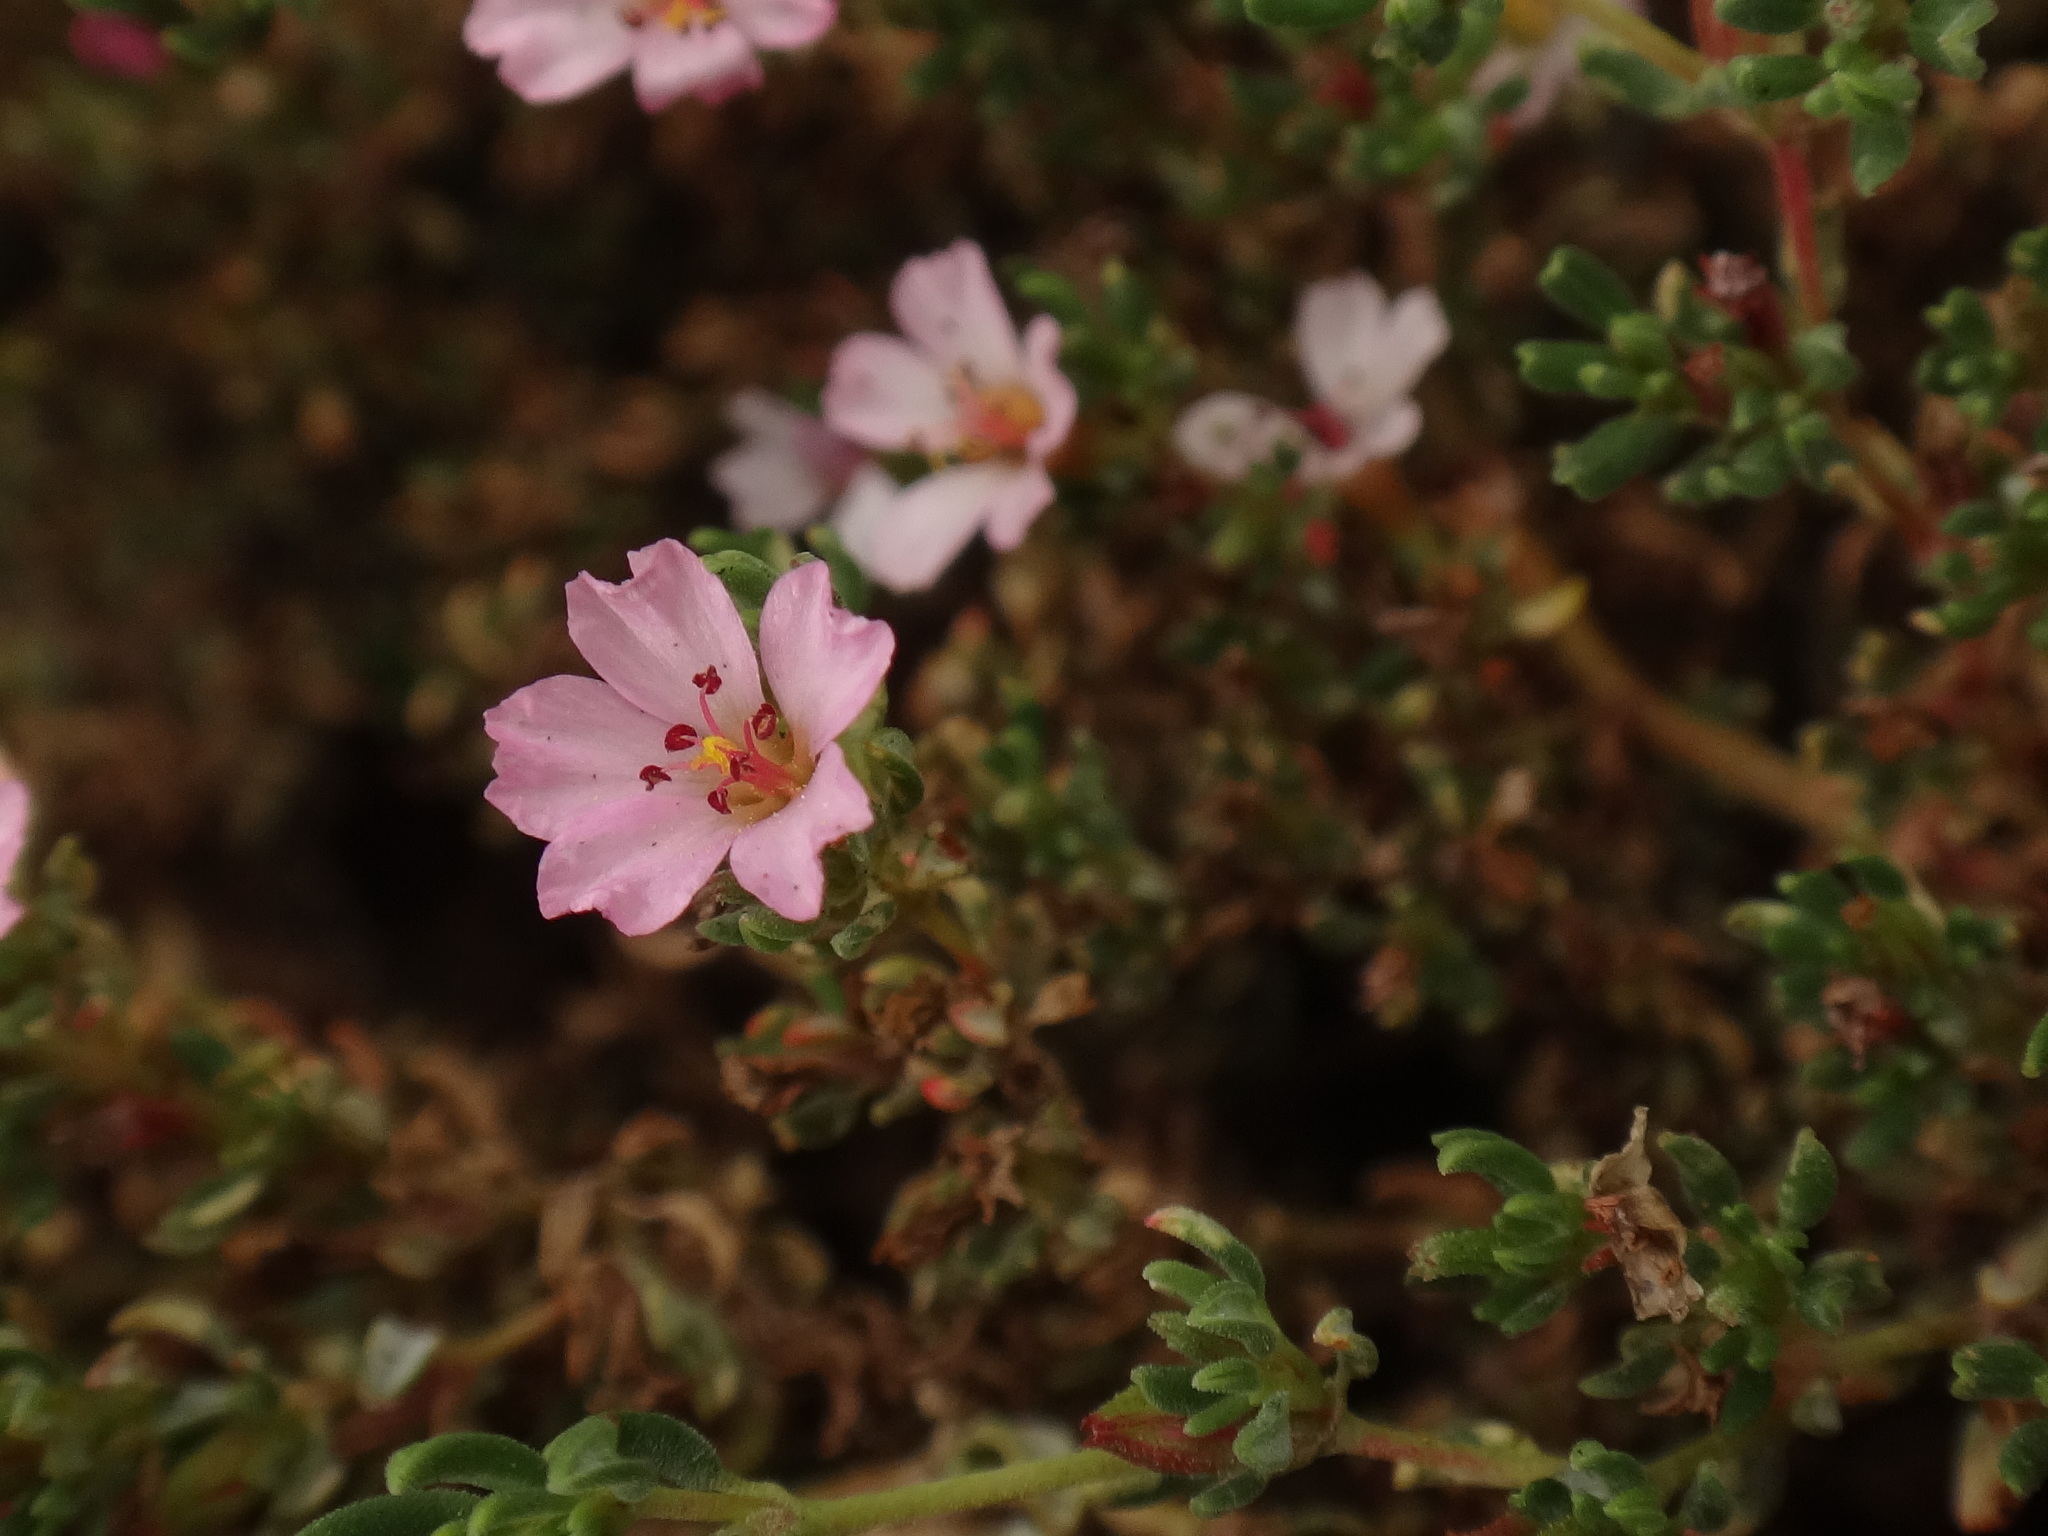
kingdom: Plantae
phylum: Tracheophyta
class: Magnoliopsida
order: Caryophyllales
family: Frankeniaceae
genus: Frankenia
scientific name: Frankenia ericifolia
